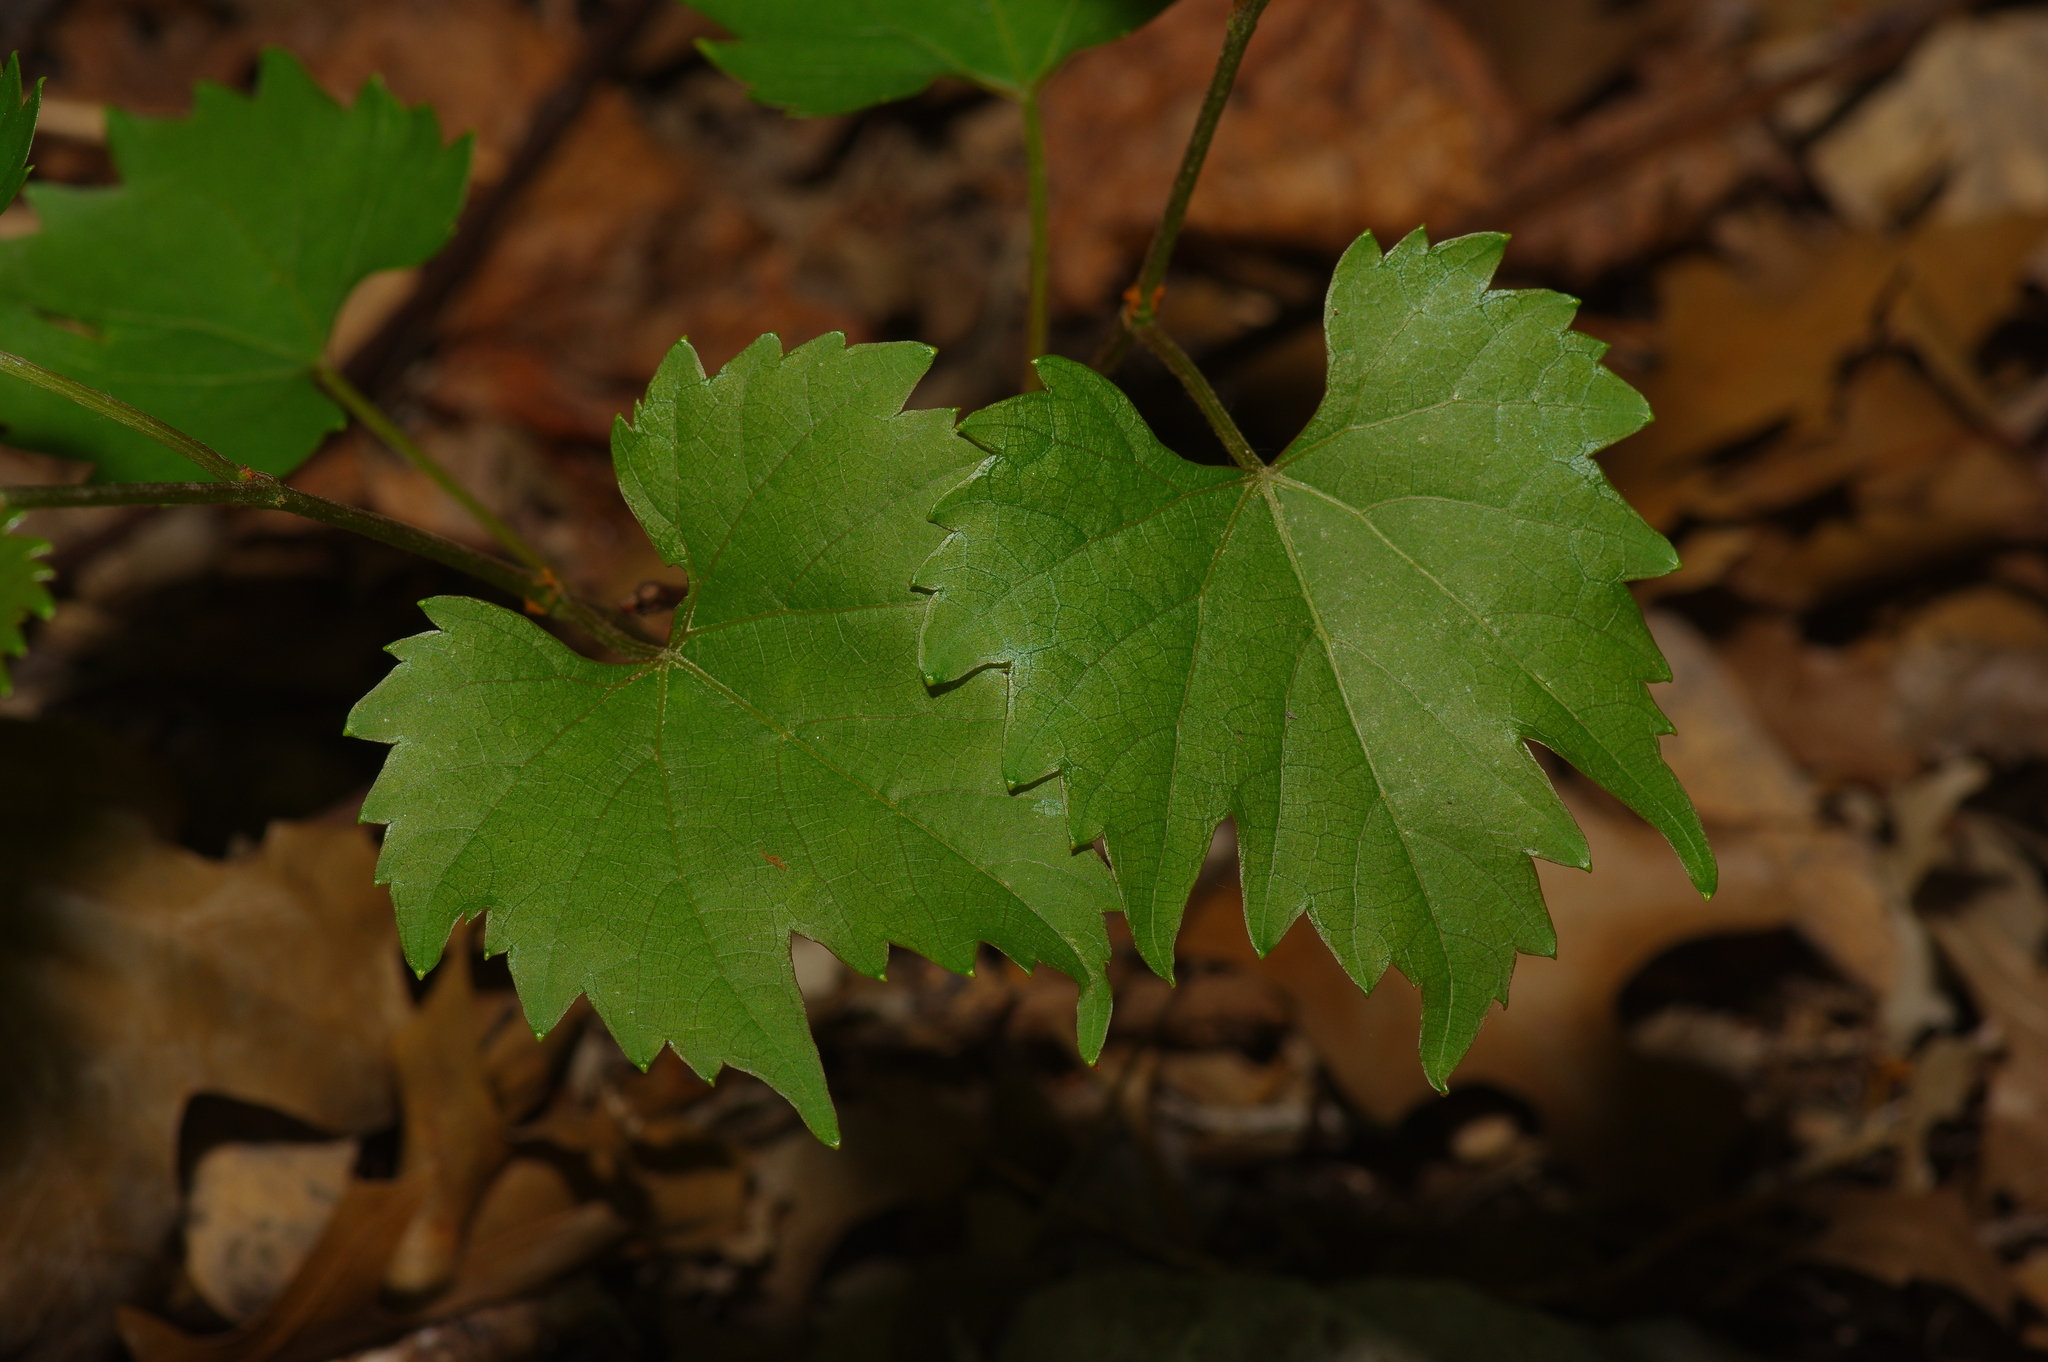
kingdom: Plantae
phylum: Tracheophyta
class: Magnoliopsida
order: Vitales
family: Vitaceae
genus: Vitis
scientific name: Vitis monticola
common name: Mountain grape
